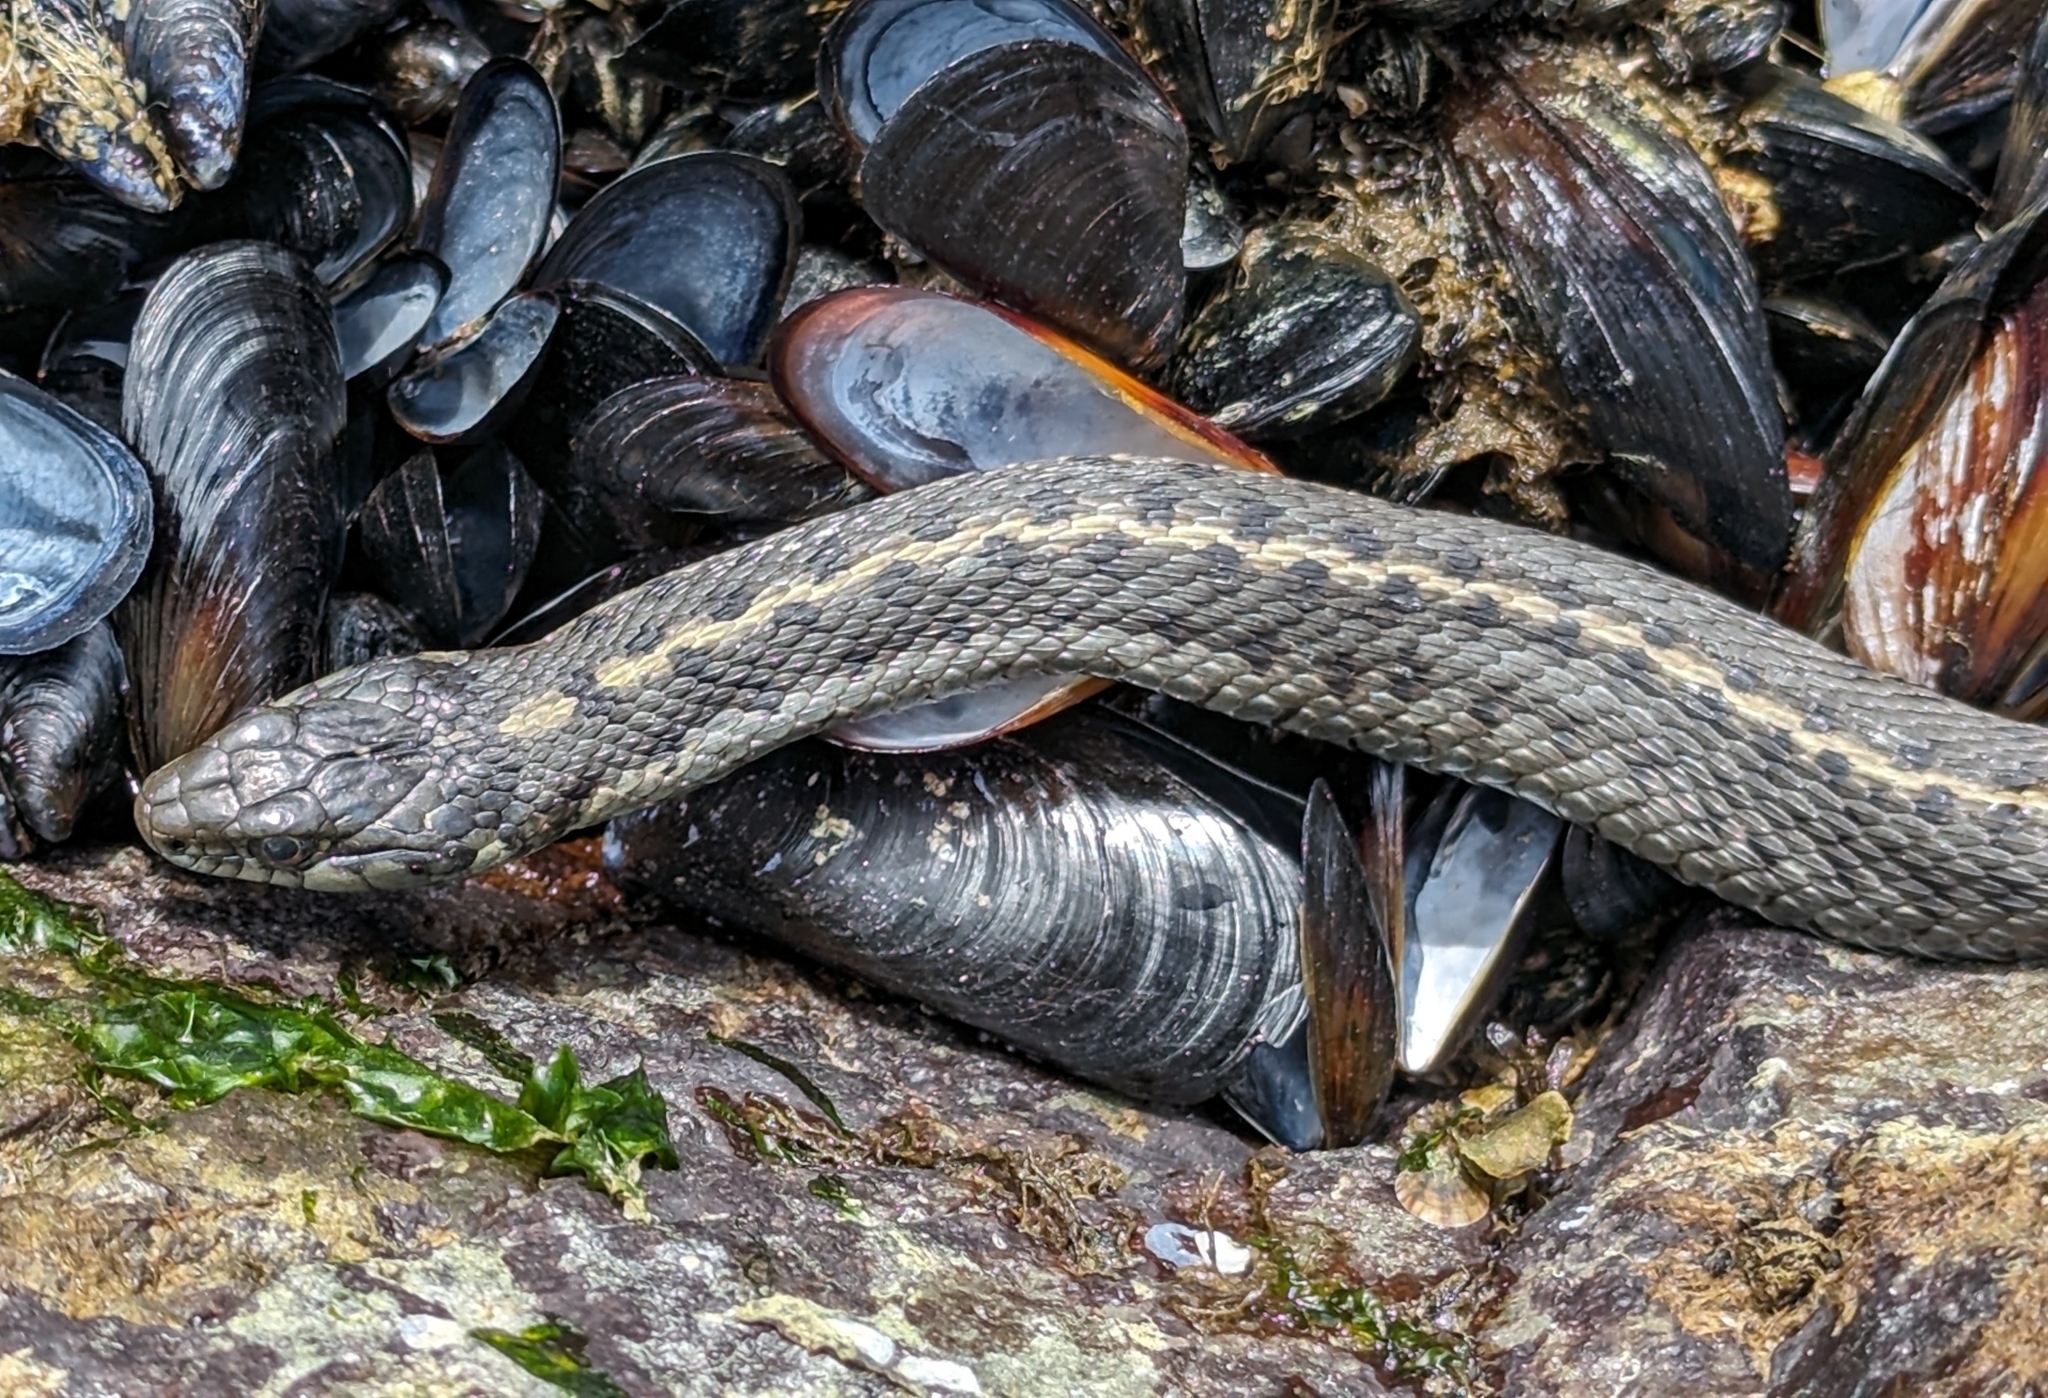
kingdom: Animalia
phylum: Chordata
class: Squamata
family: Colubridae
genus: Thamnophis
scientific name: Thamnophis elegans
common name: Western terrestrial garter snake
